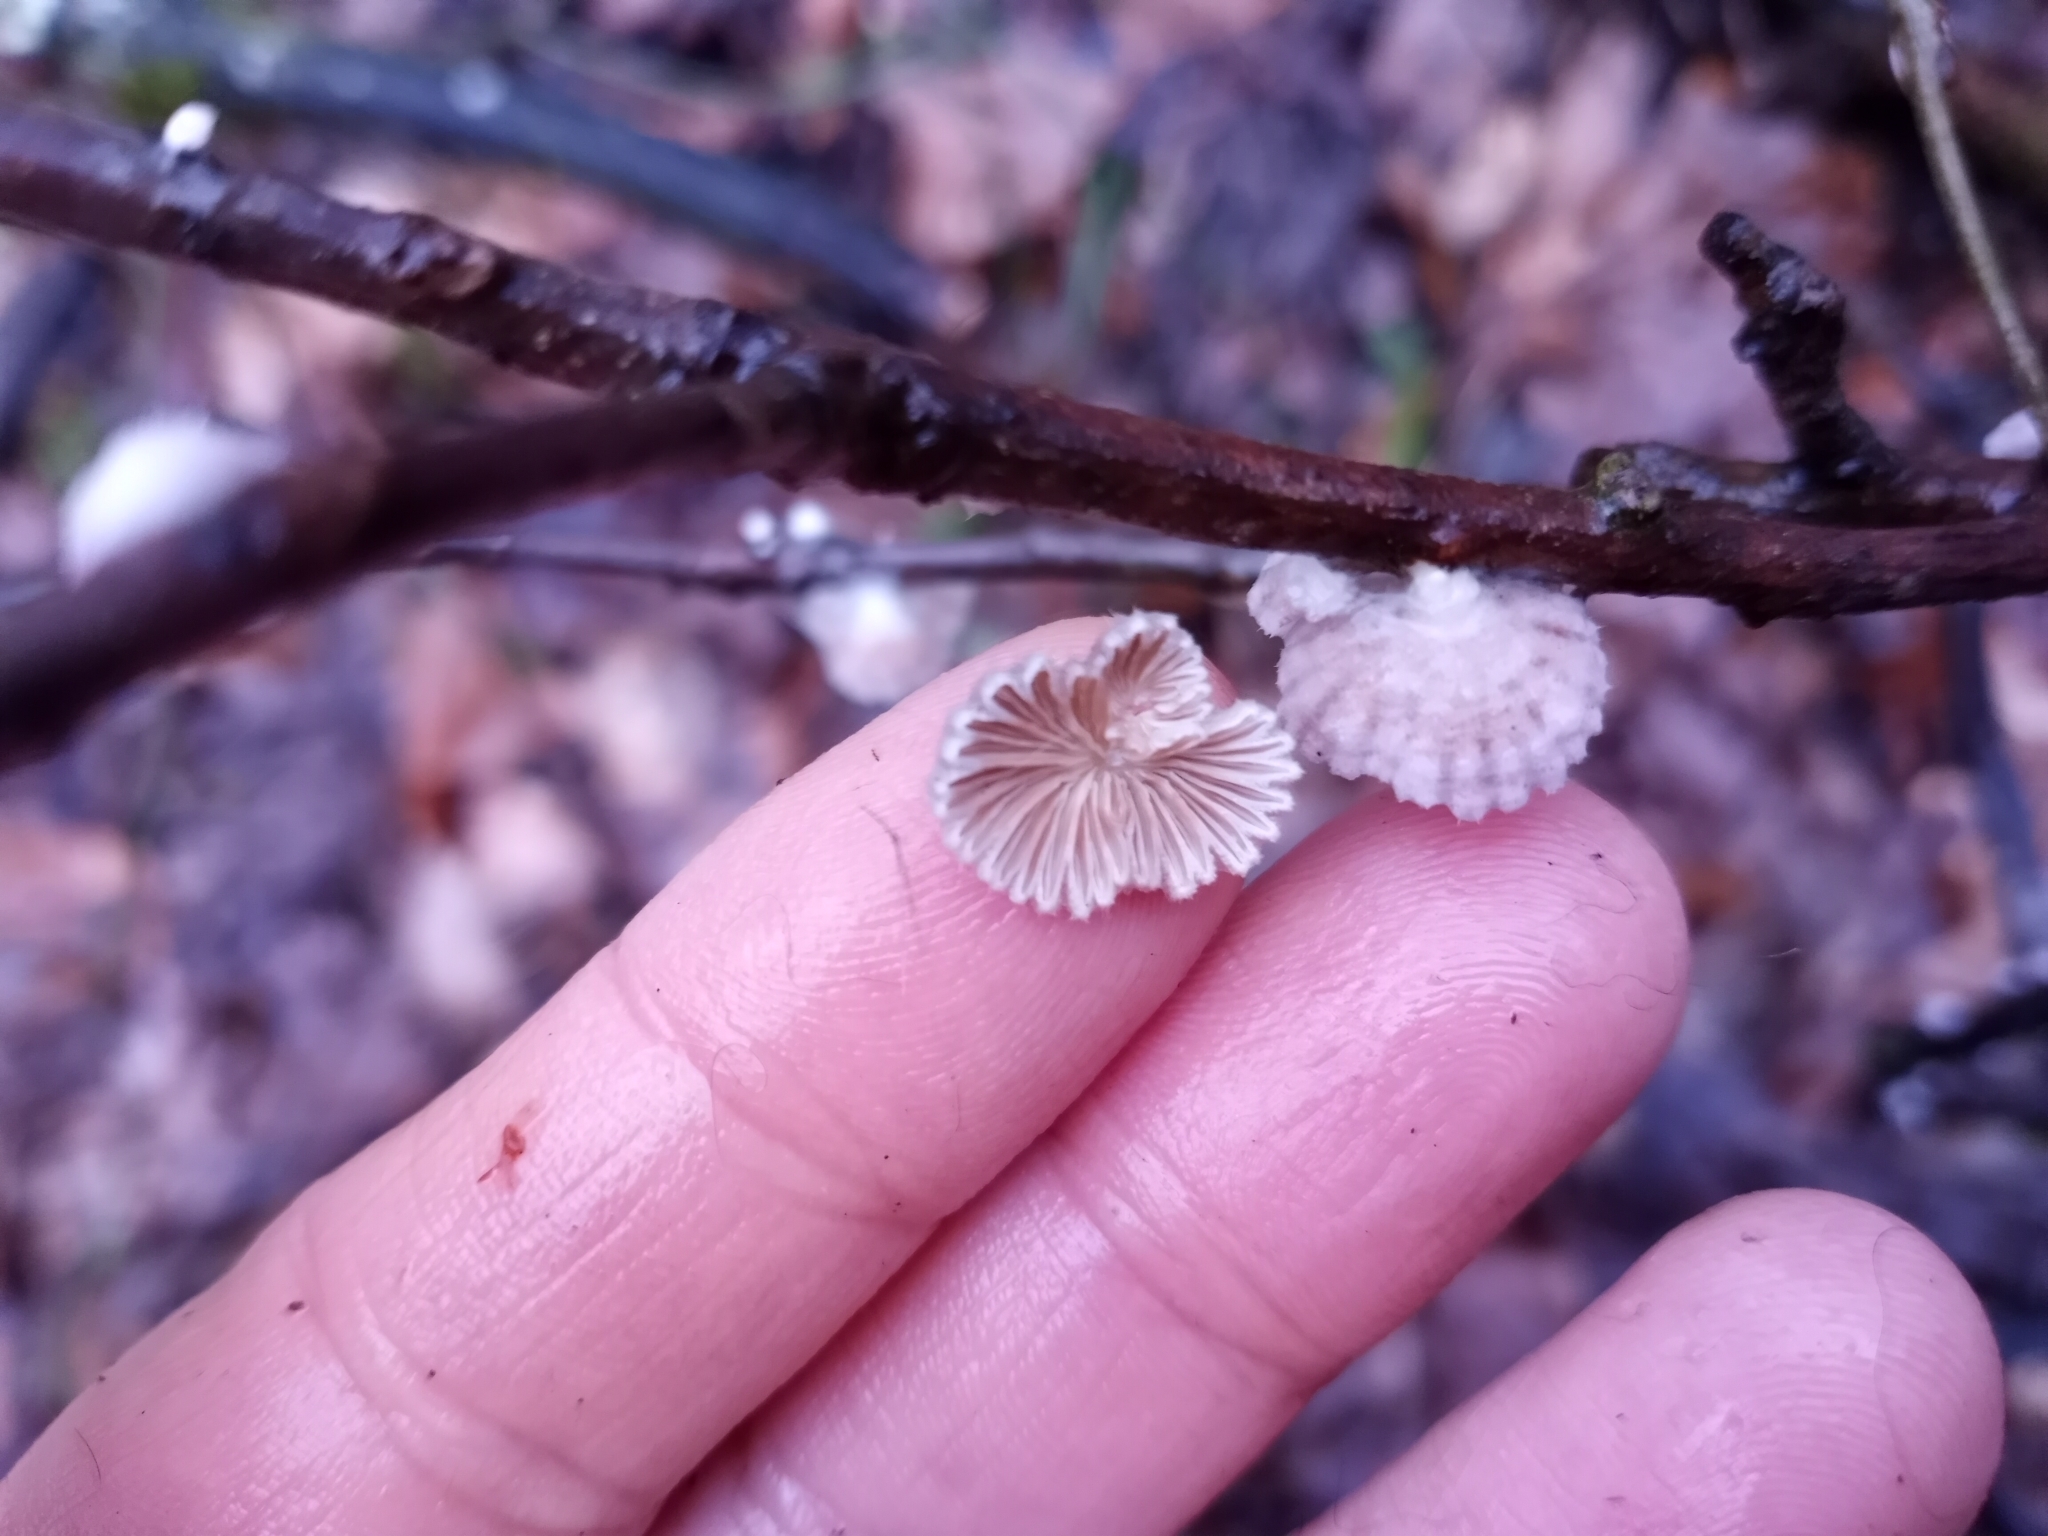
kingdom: Fungi
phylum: Basidiomycota
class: Agaricomycetes
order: Agaricales
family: Schizophyllaceae
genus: Schizophyllum
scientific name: Schizophyllum commune
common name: Common porecrust
